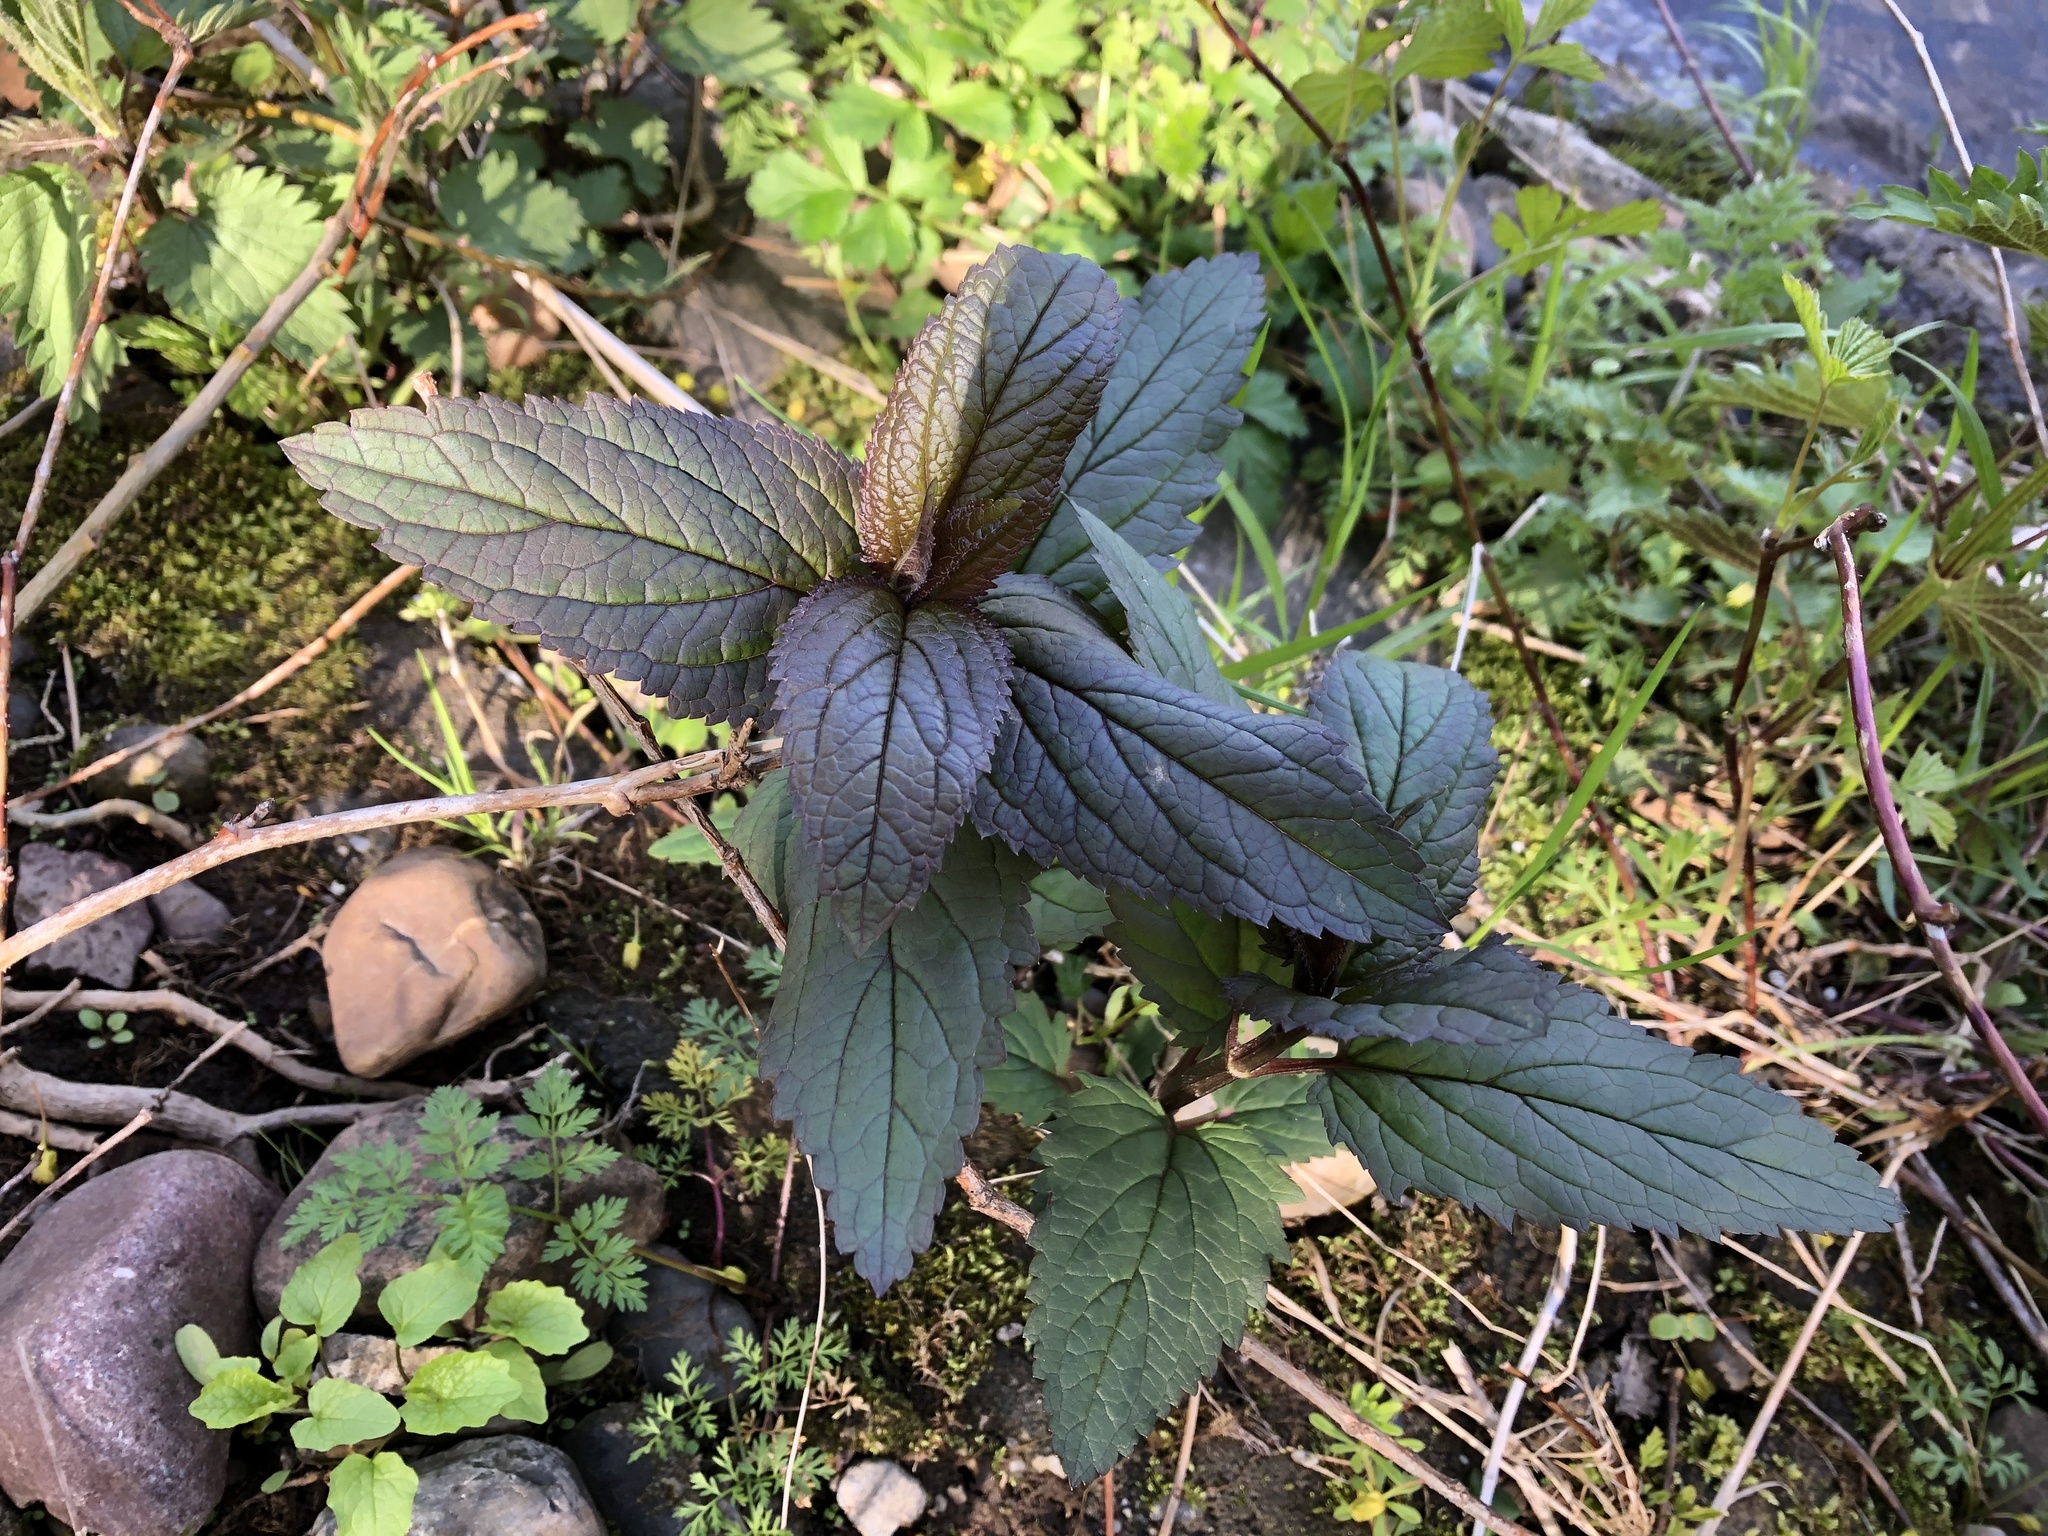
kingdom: Plantae
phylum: Tracheophyta
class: Magnoliopsida
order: Lamiales
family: Scrophulariaceae
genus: Scrophularia
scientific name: Scrophularia nodosa
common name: Common figwort
